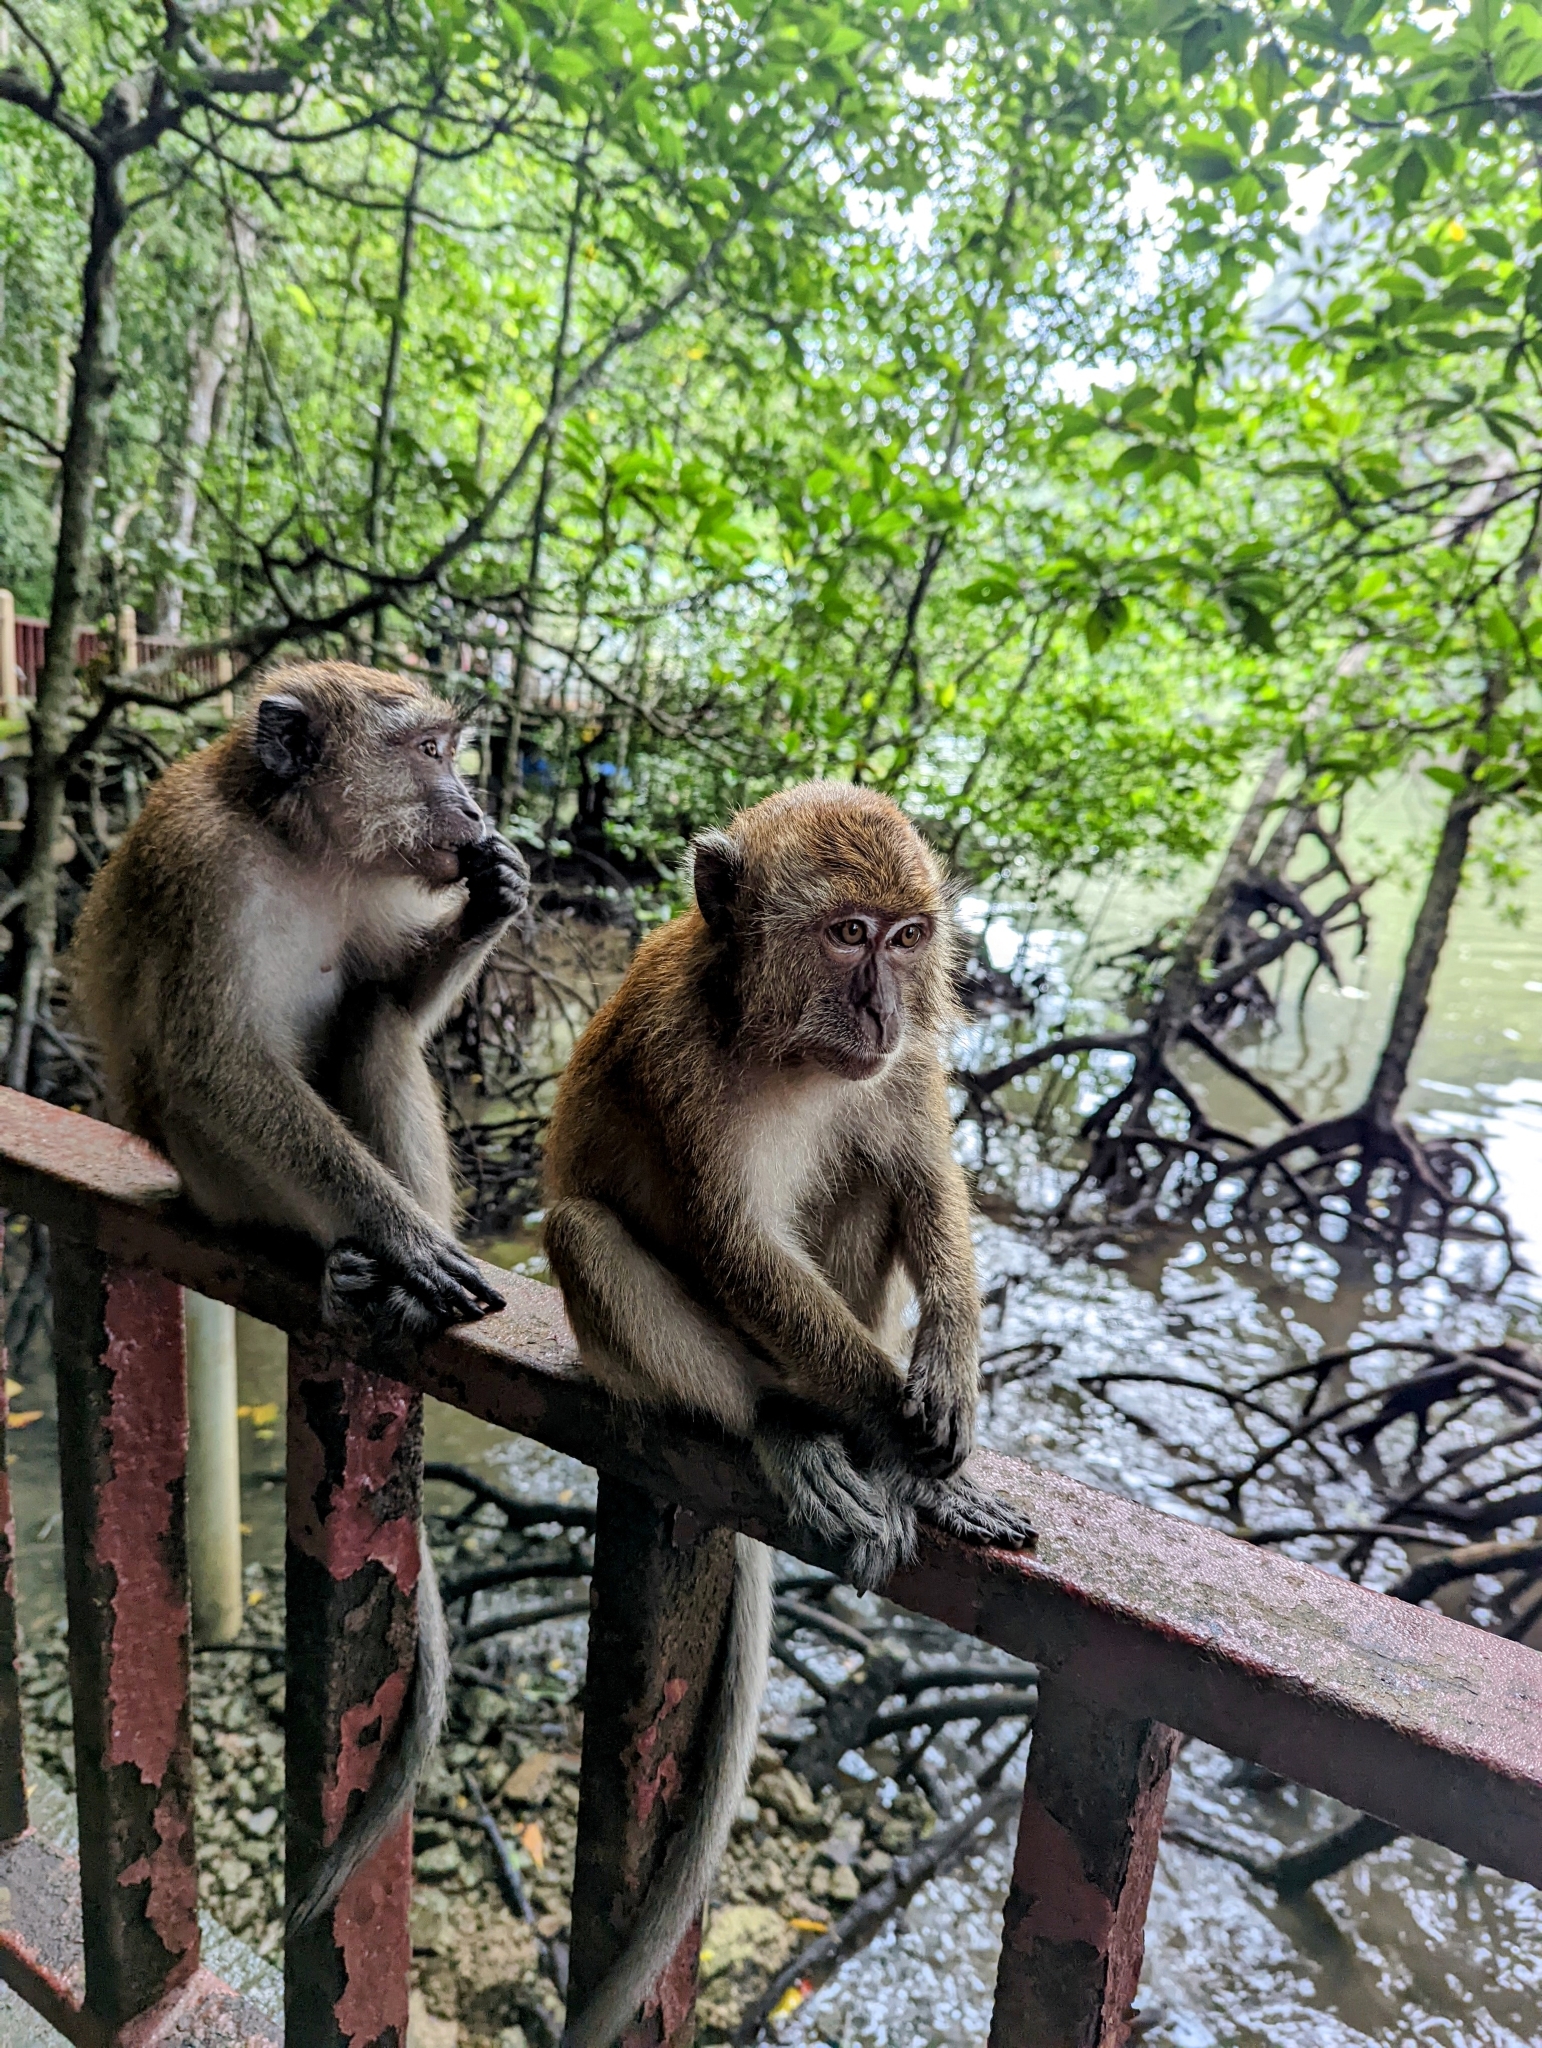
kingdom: Animalia
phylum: Chordata
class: Mammalia
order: Primates
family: Cercopithecidae
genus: Macaca
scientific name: Macaca fascicularis
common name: Crab-eating macaque
